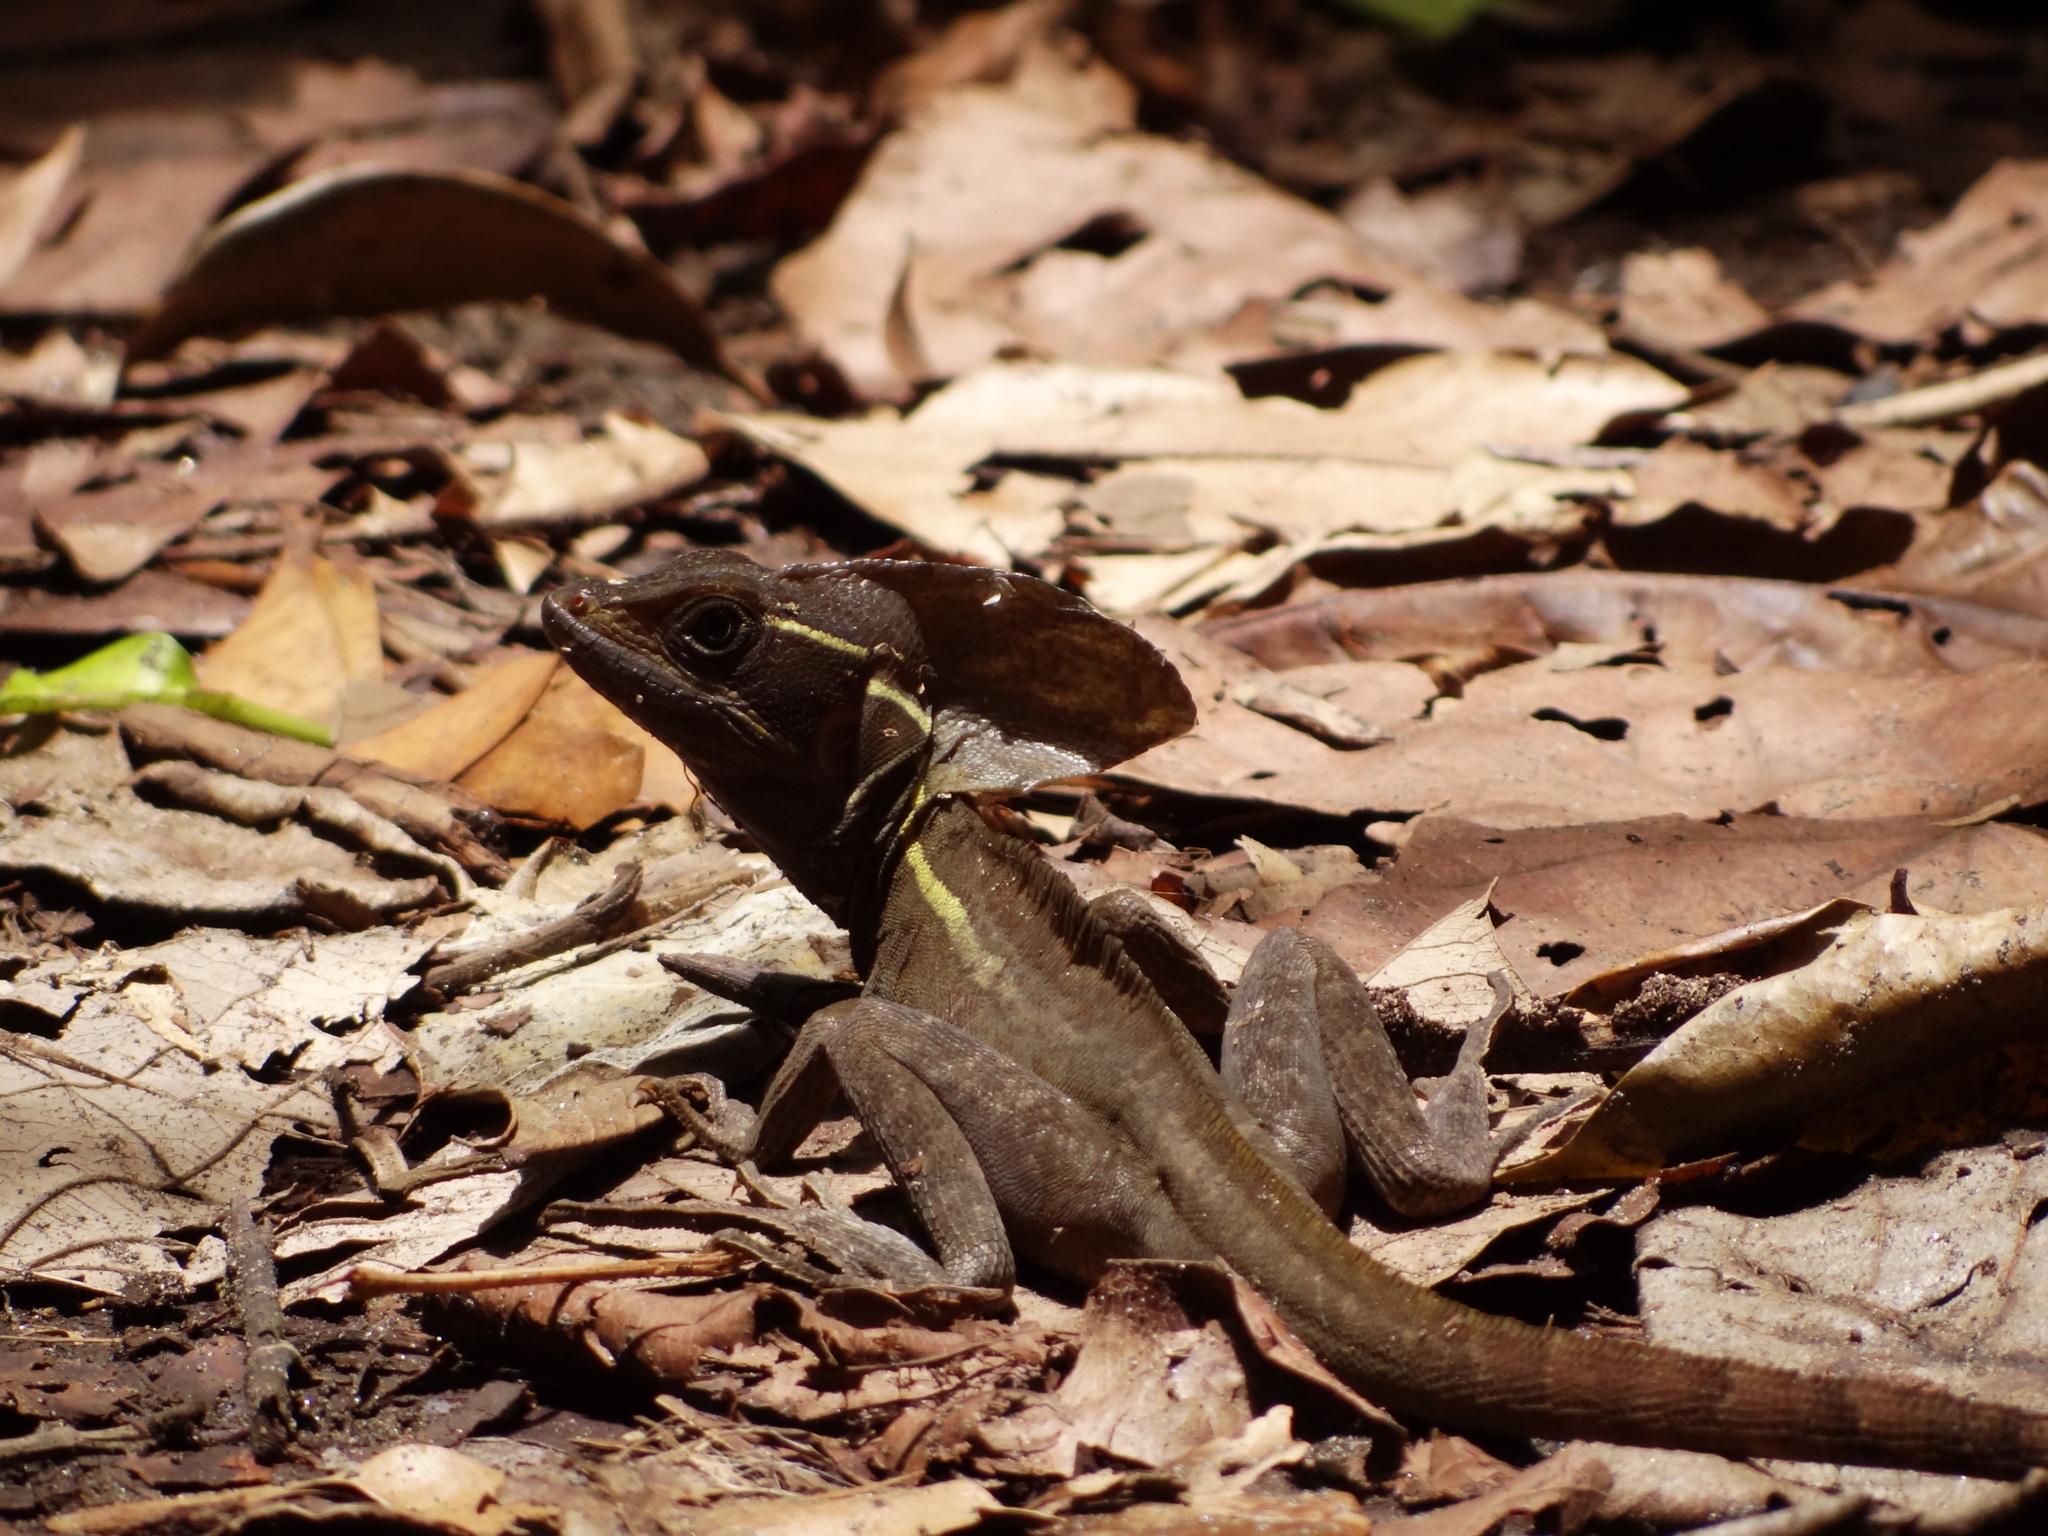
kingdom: Animalia
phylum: Chordata
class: Squamata
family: Corytophanidae
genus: Basiliscus
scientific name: Basiliscus vittatus
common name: Brown basilisk
